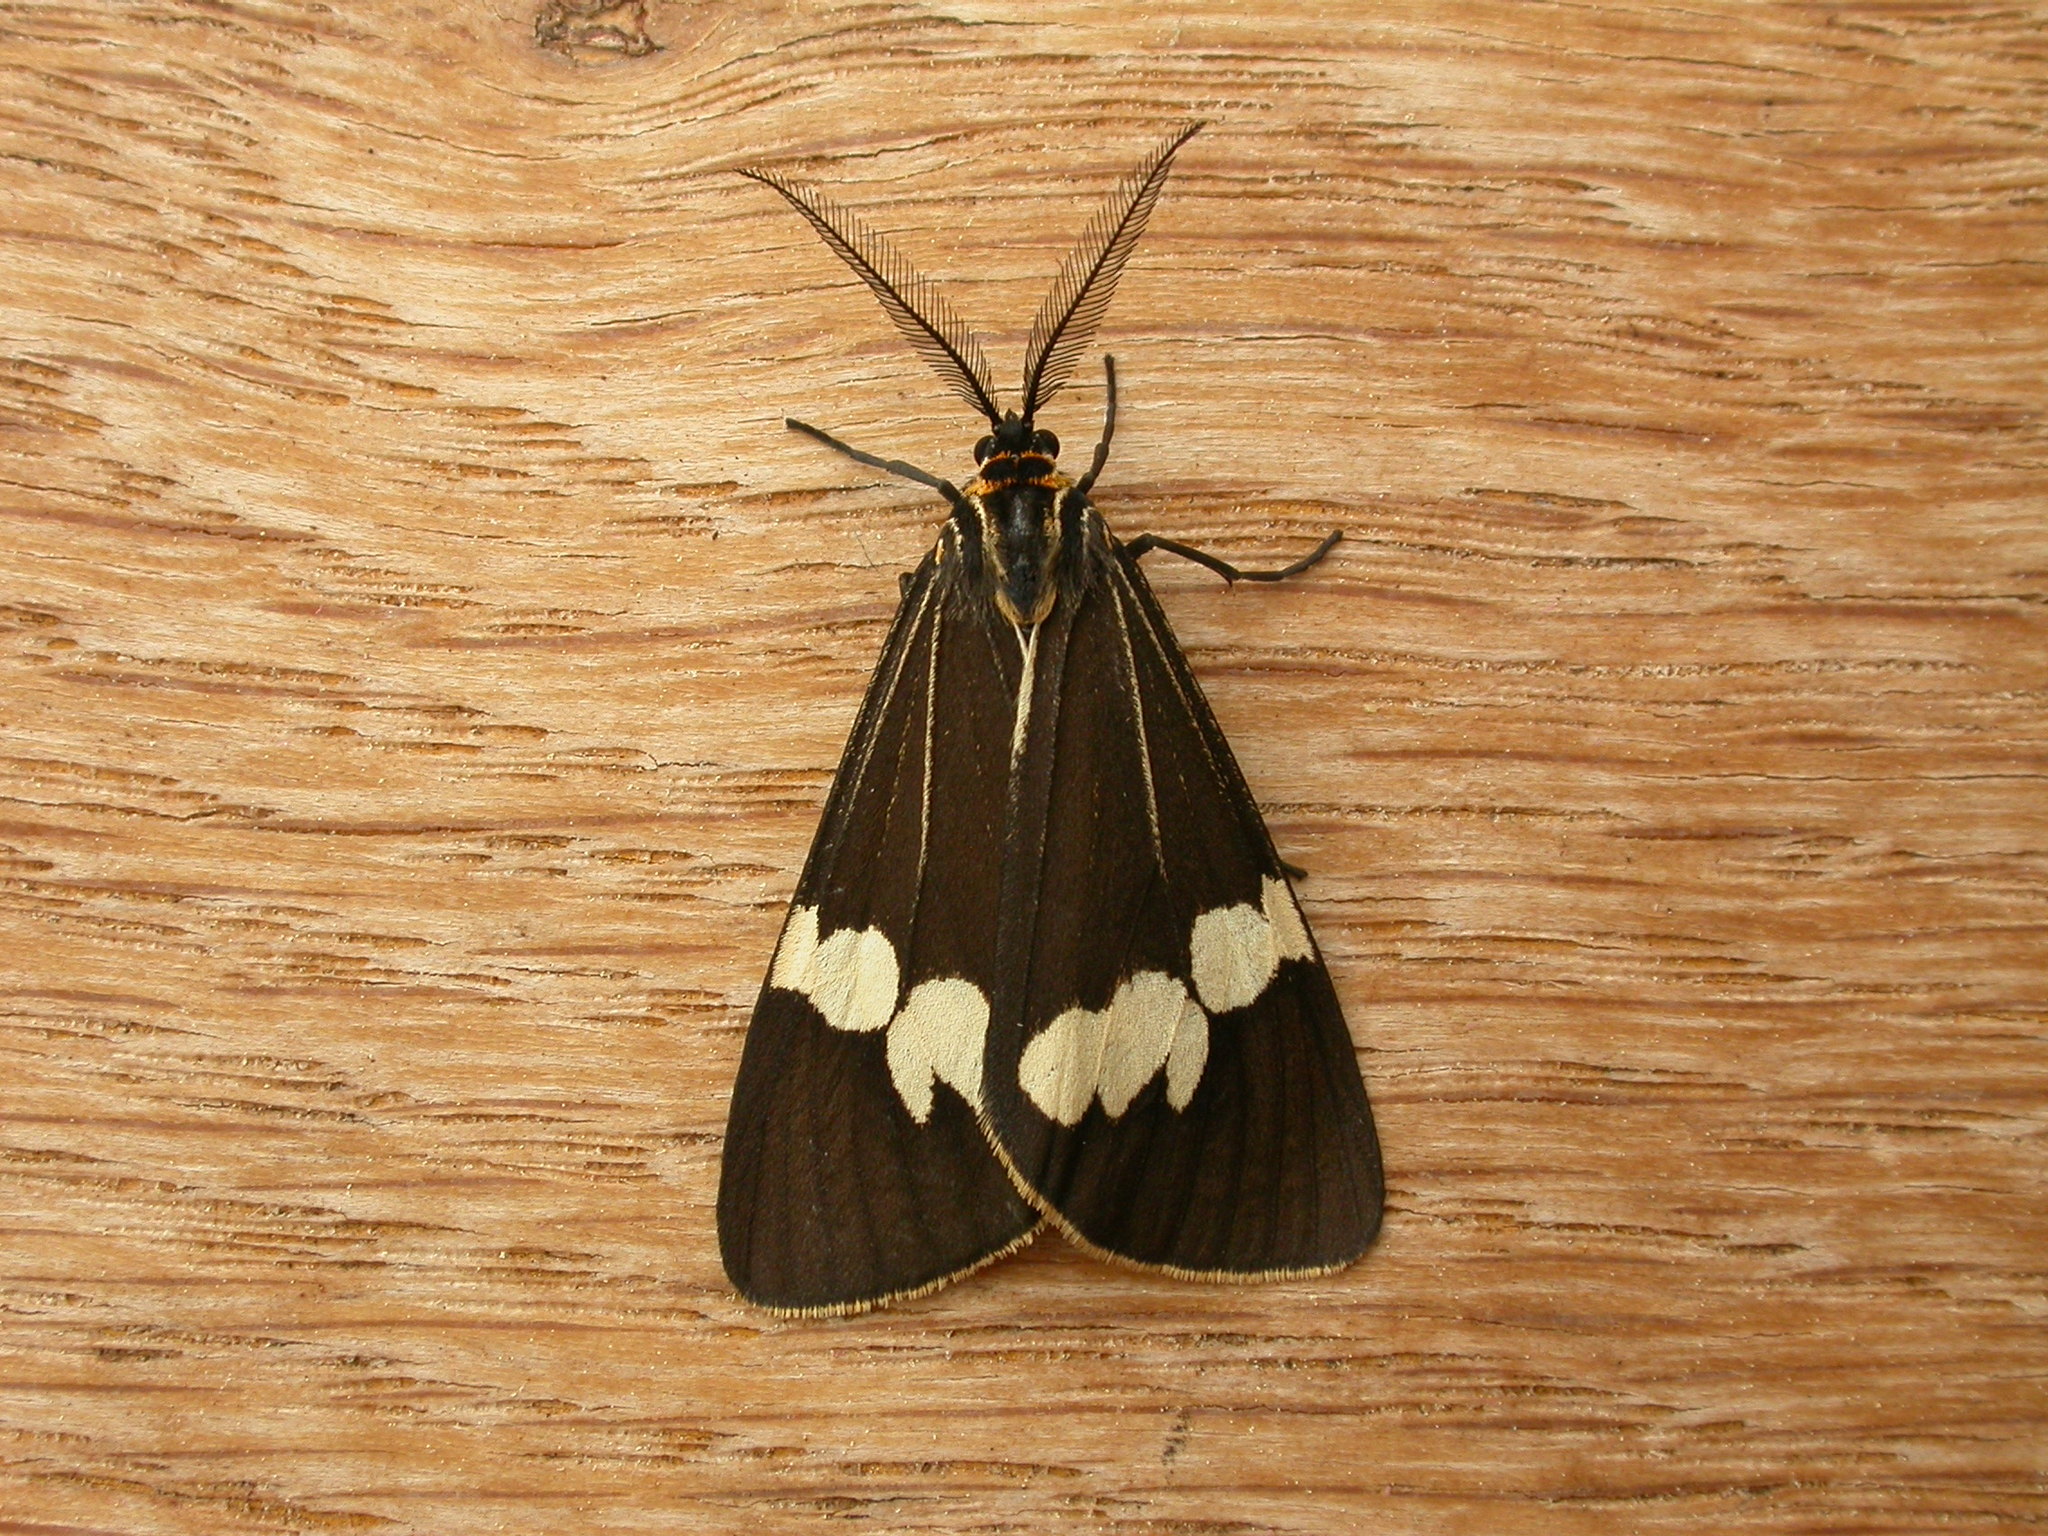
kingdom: Animalia
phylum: Arthropoda
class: Insecta
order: Lepidoptera
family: Erebidae
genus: Nyctemera
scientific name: Nyctemera amicus
